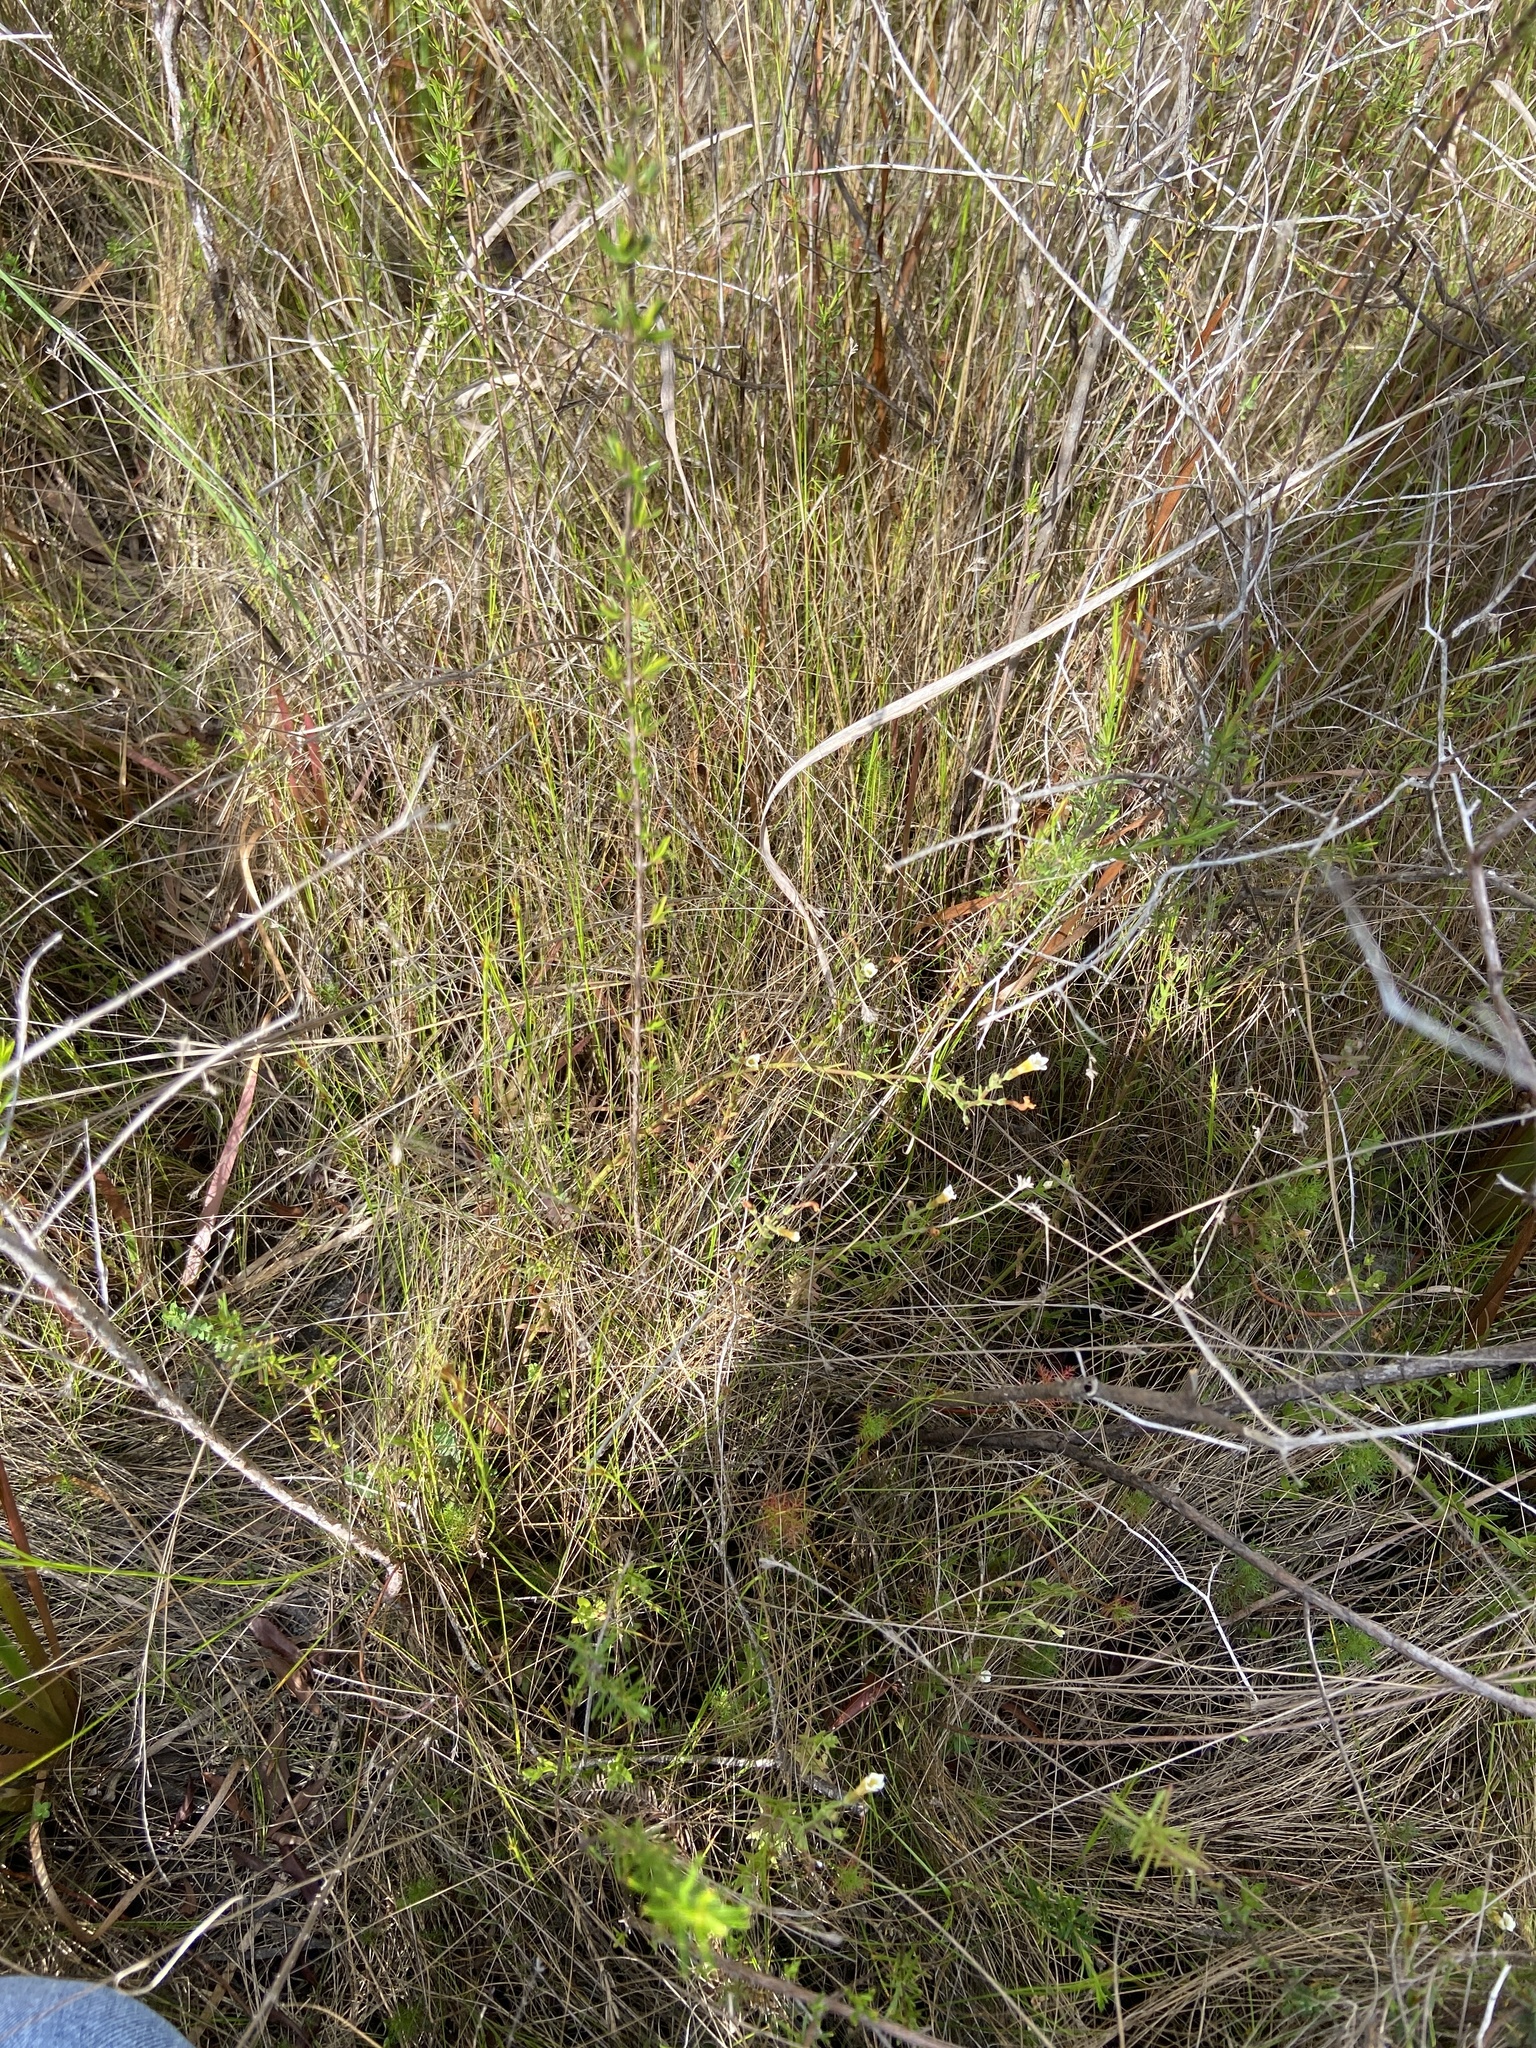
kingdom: Plantae
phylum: Tracheophyta
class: Magnoliopsida
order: Lamiales
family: Plantaginaceae
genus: Gratiola
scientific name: Gratiola ramosa
